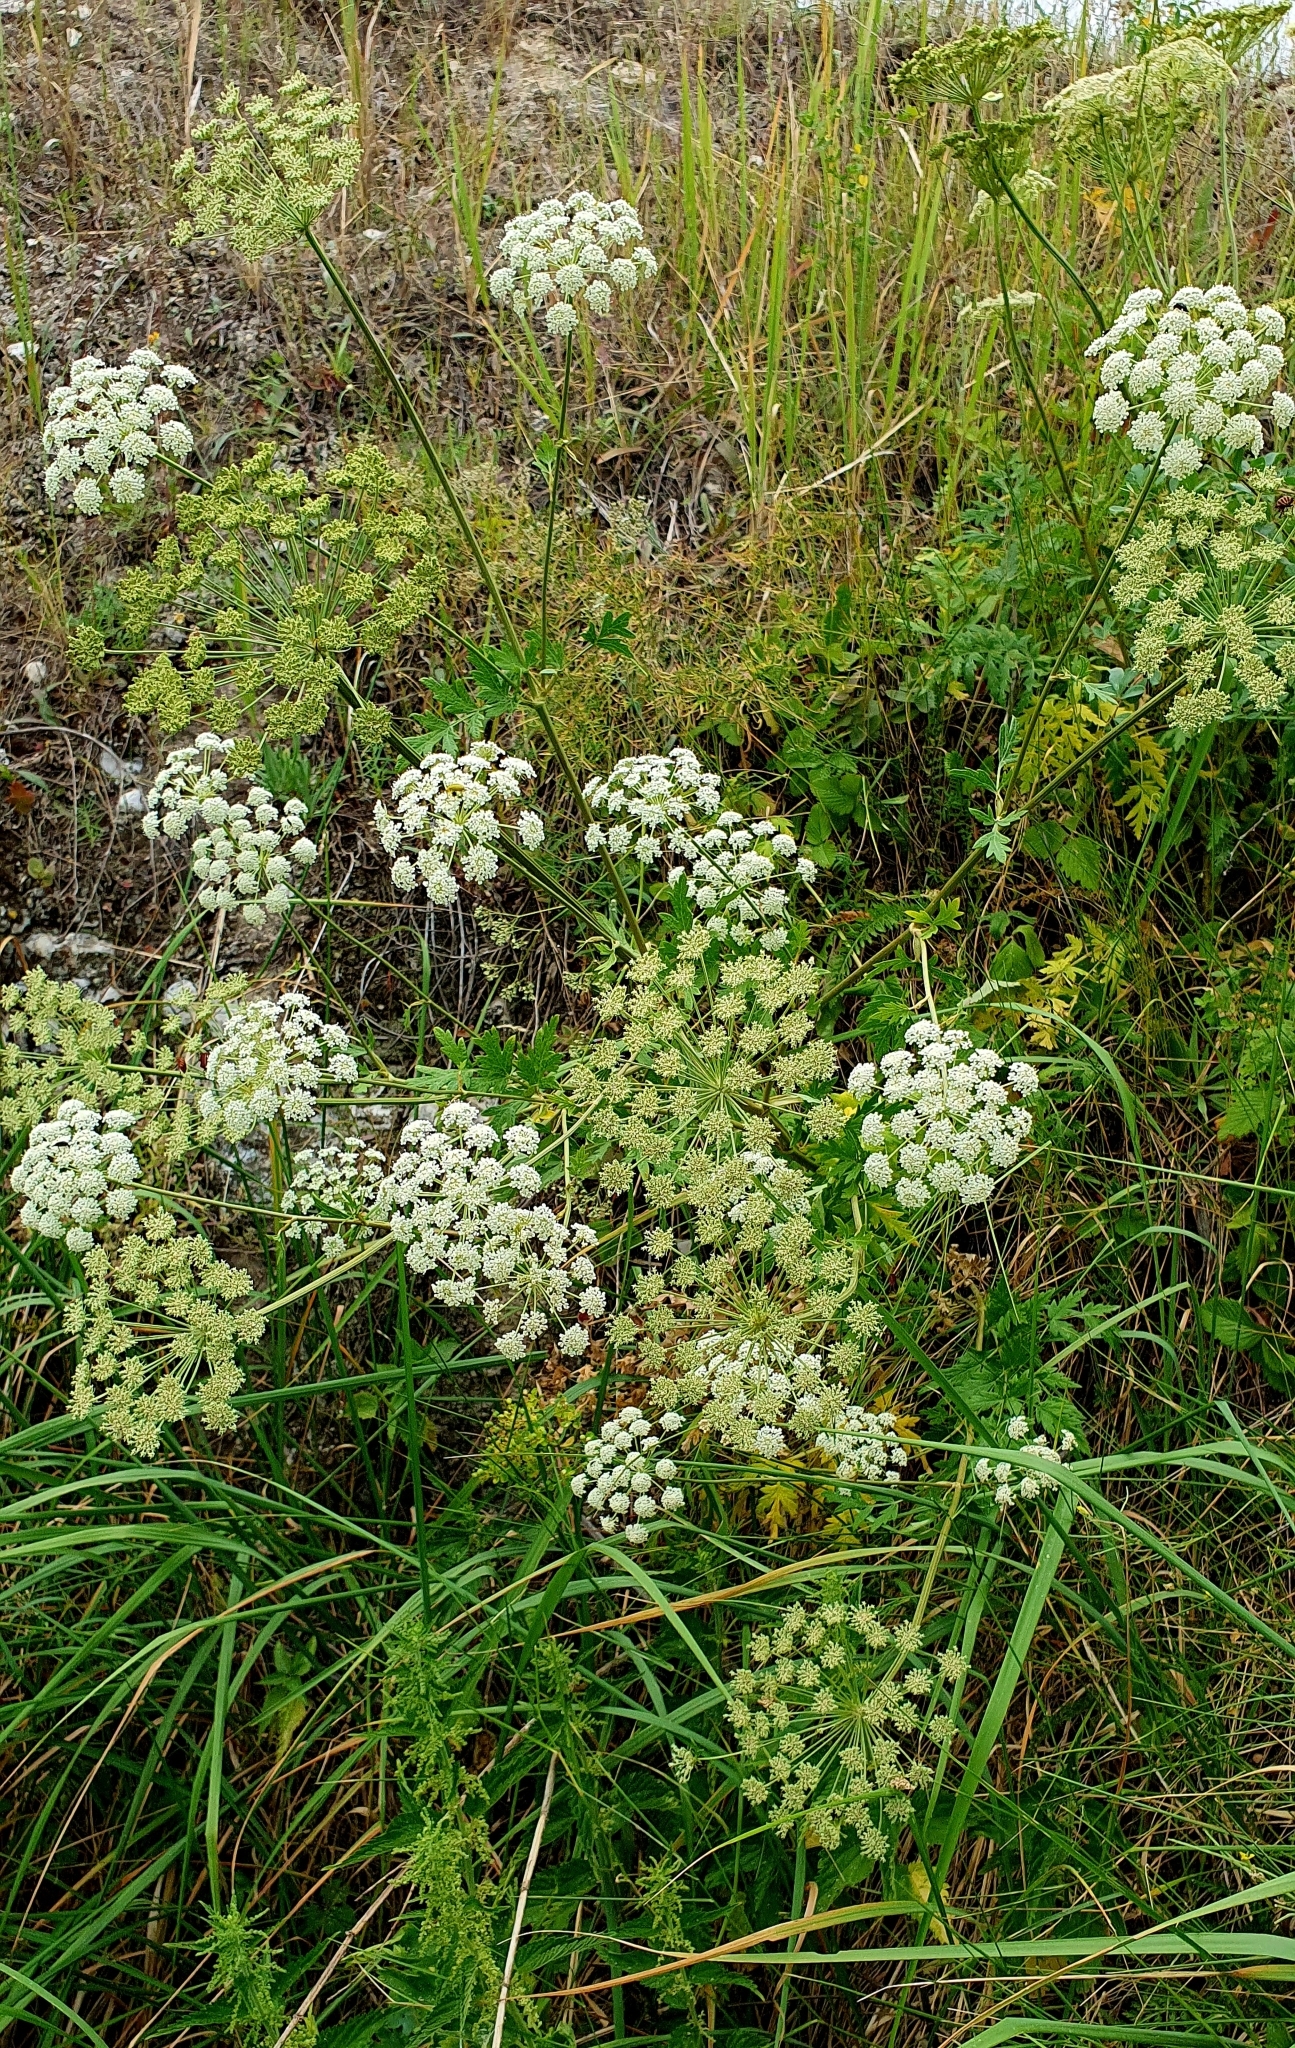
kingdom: Plantae
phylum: Tracheophyta
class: Magnoliopsida
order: Apiales
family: Apiaceae
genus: Seseli
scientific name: Seseli libanotis
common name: Mooncarrot
